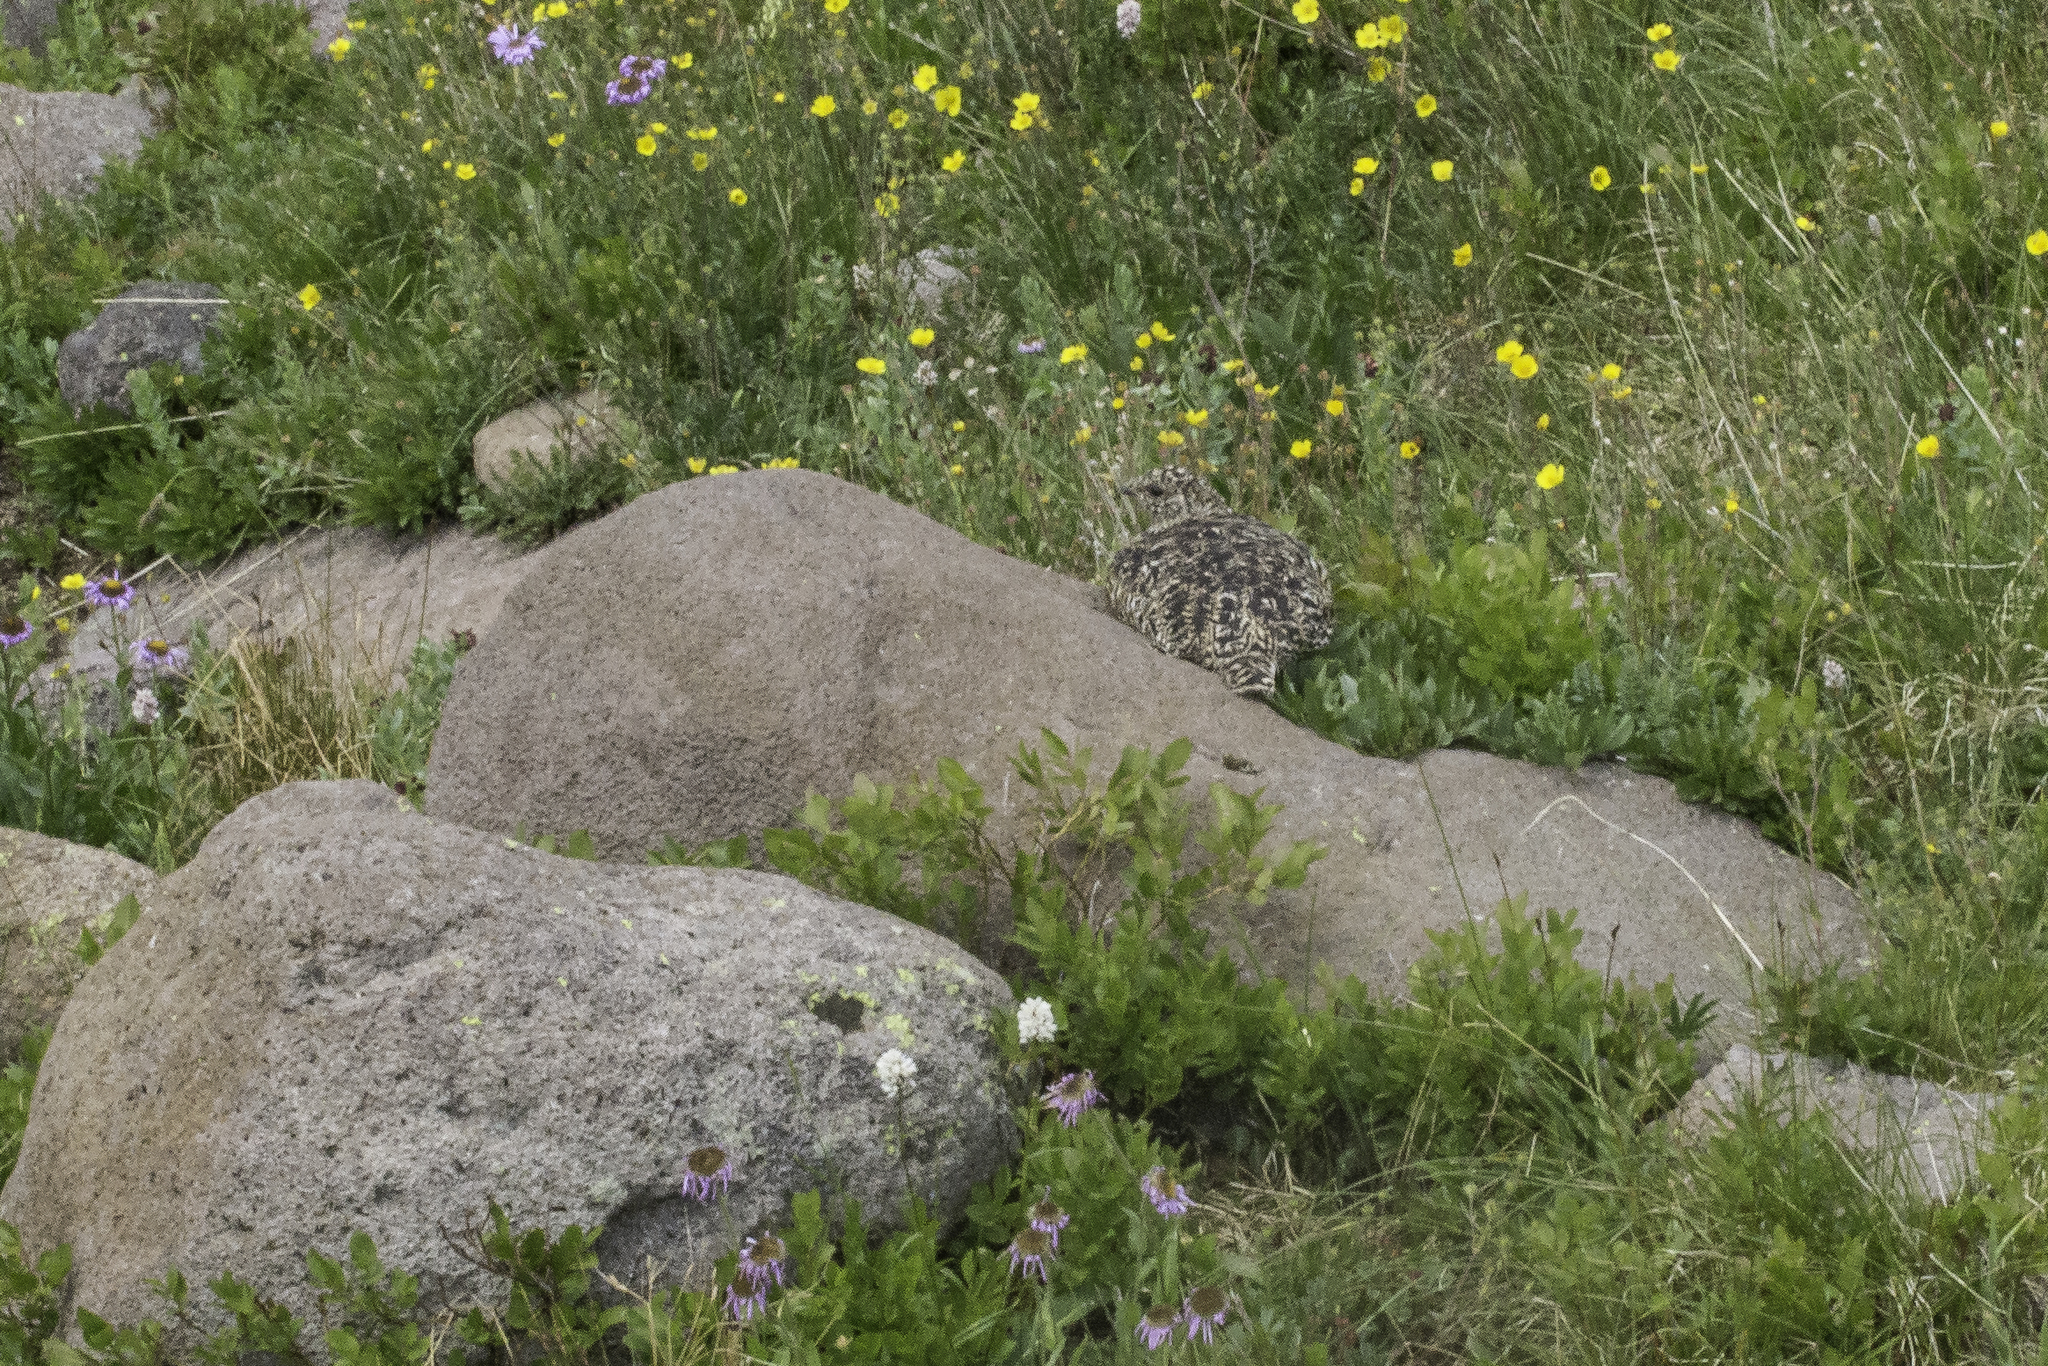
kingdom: Animalia
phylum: Chordata
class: Aves
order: Galliformes
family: Phasianidae
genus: Lagopus
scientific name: Lagopus leucura
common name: White-tailed ptarmigan
